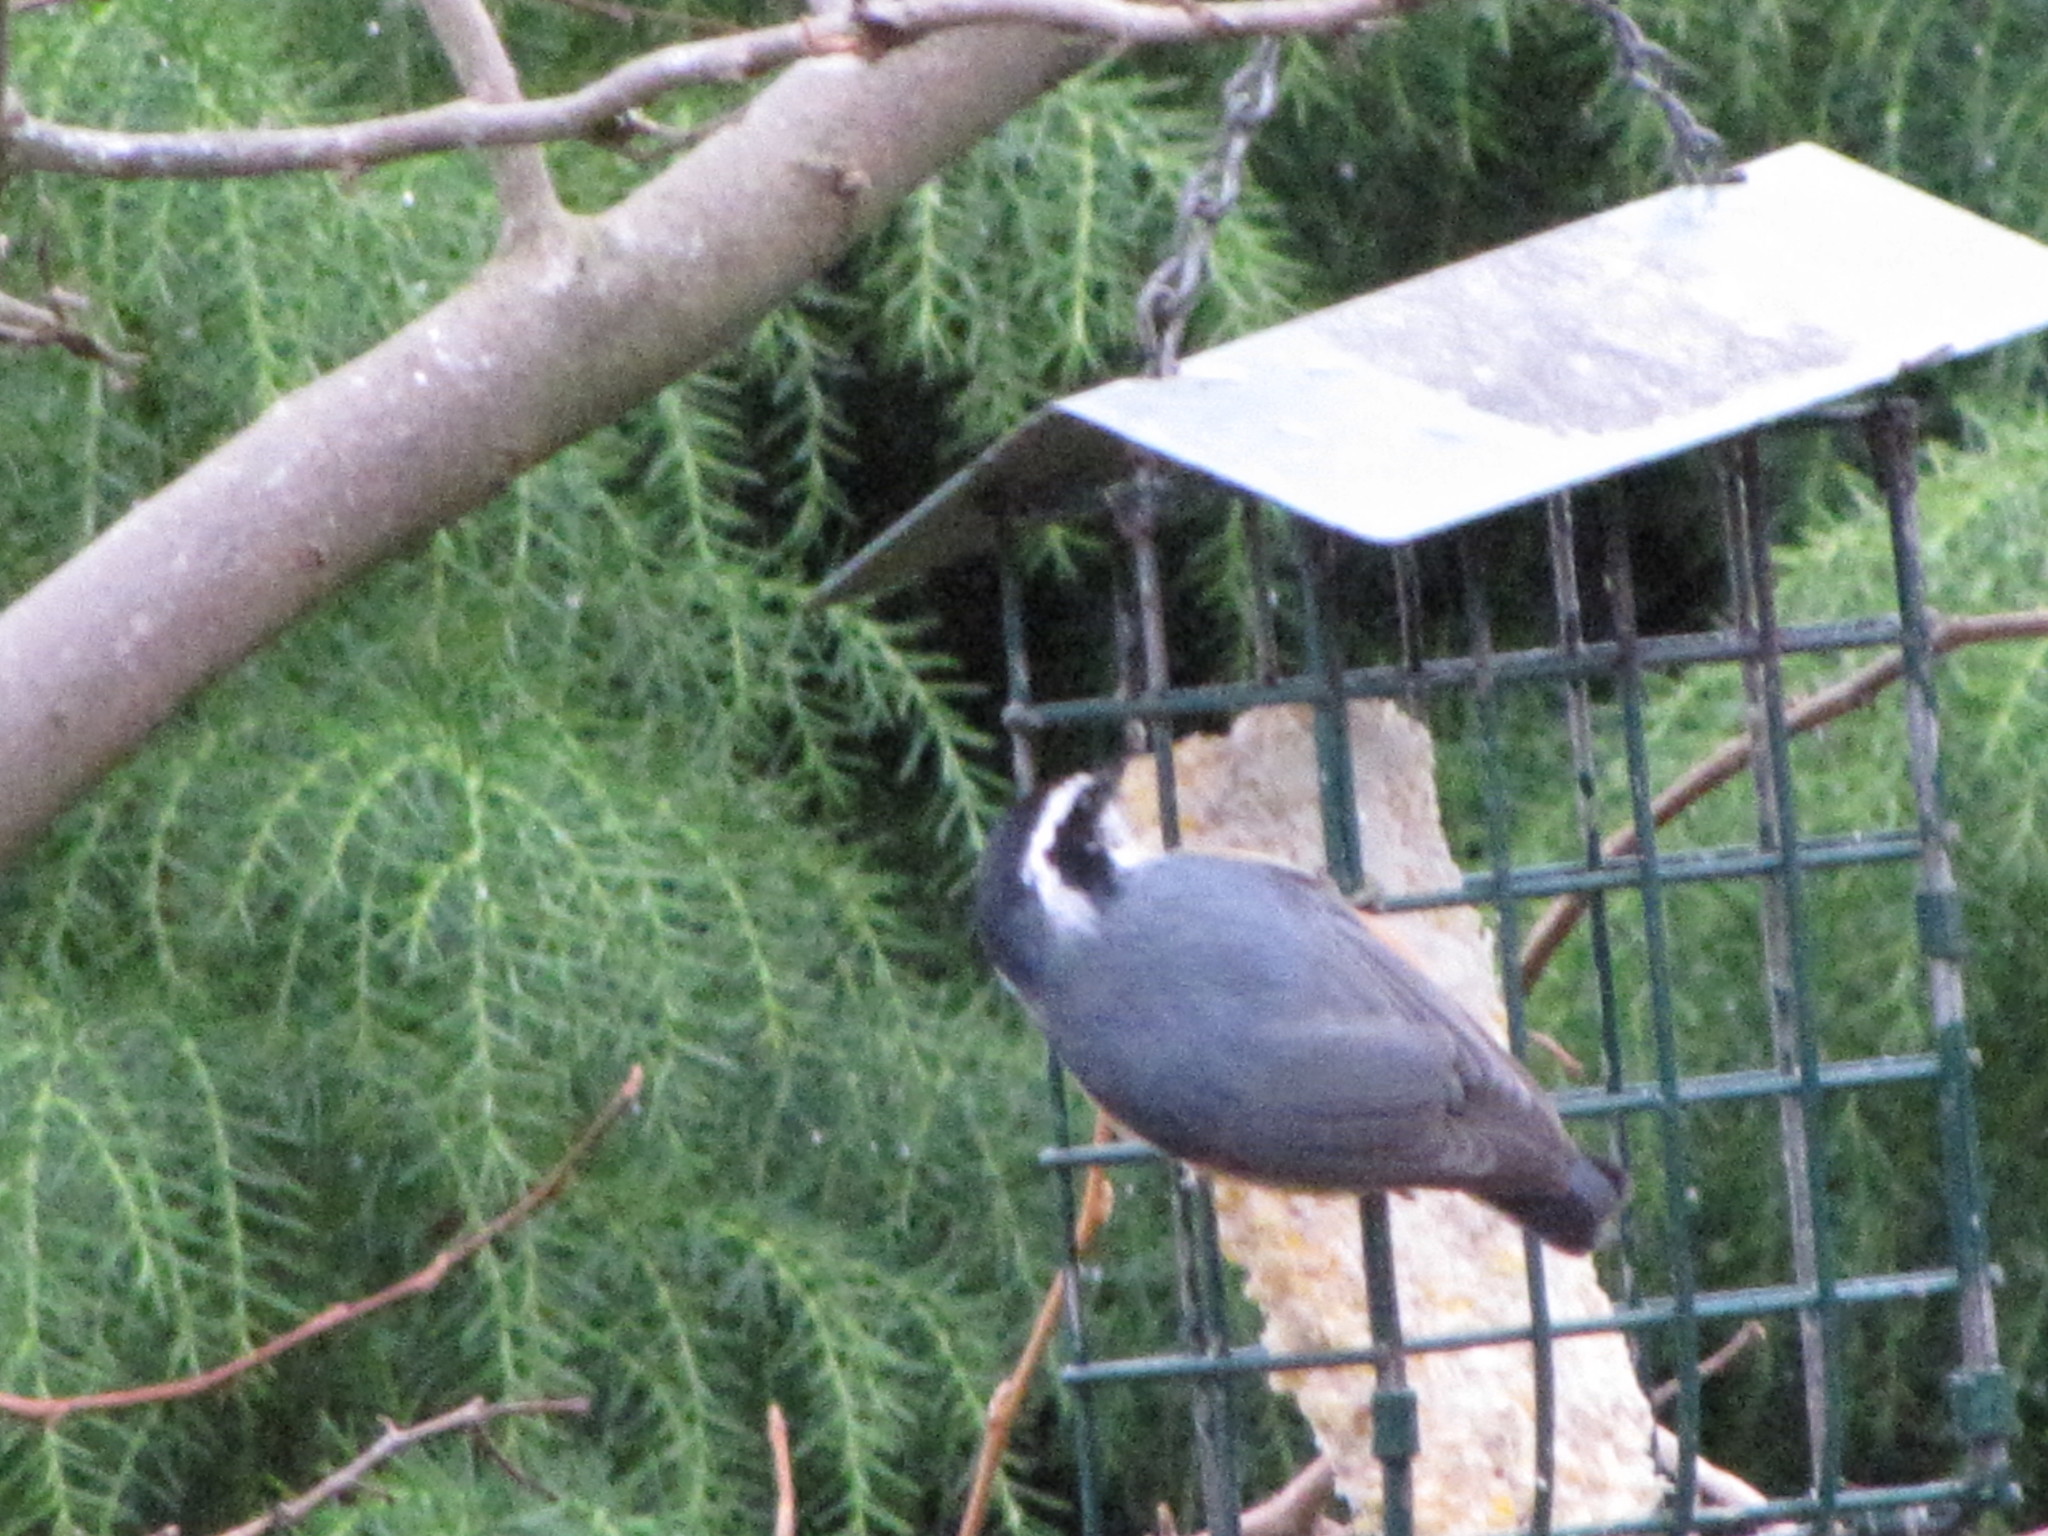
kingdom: Animalia
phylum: Chordata
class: Aves
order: Passeriformes
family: Sittidae
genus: Sitta
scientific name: Sitta canadensis
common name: Red-breasted nuthatch
